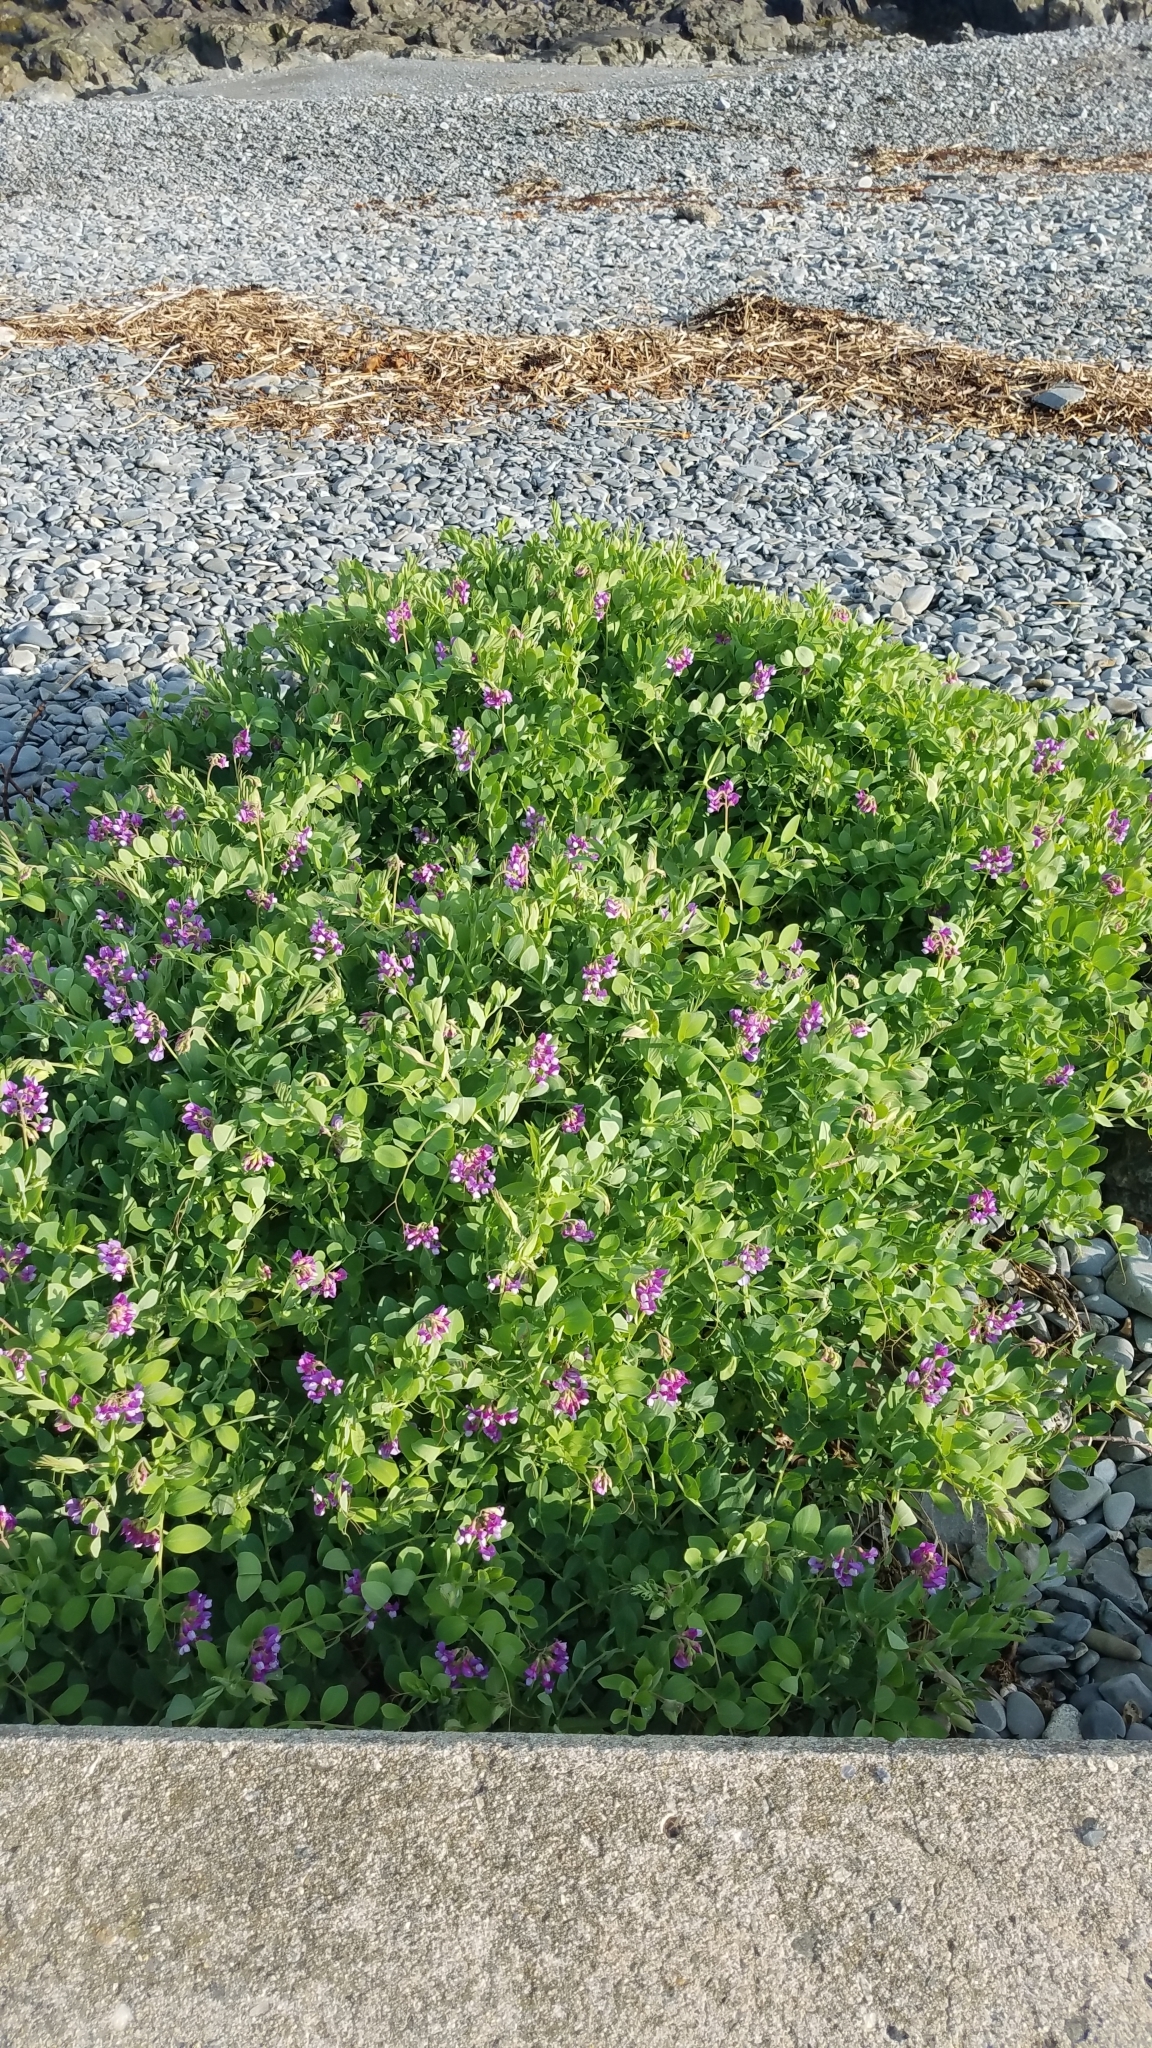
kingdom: Plantae
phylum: Tracheophyta
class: Magnoliopsida
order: Fabales
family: Fabaceae
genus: Lathyrus
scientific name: Lathyrus japonicus
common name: Sea pea
